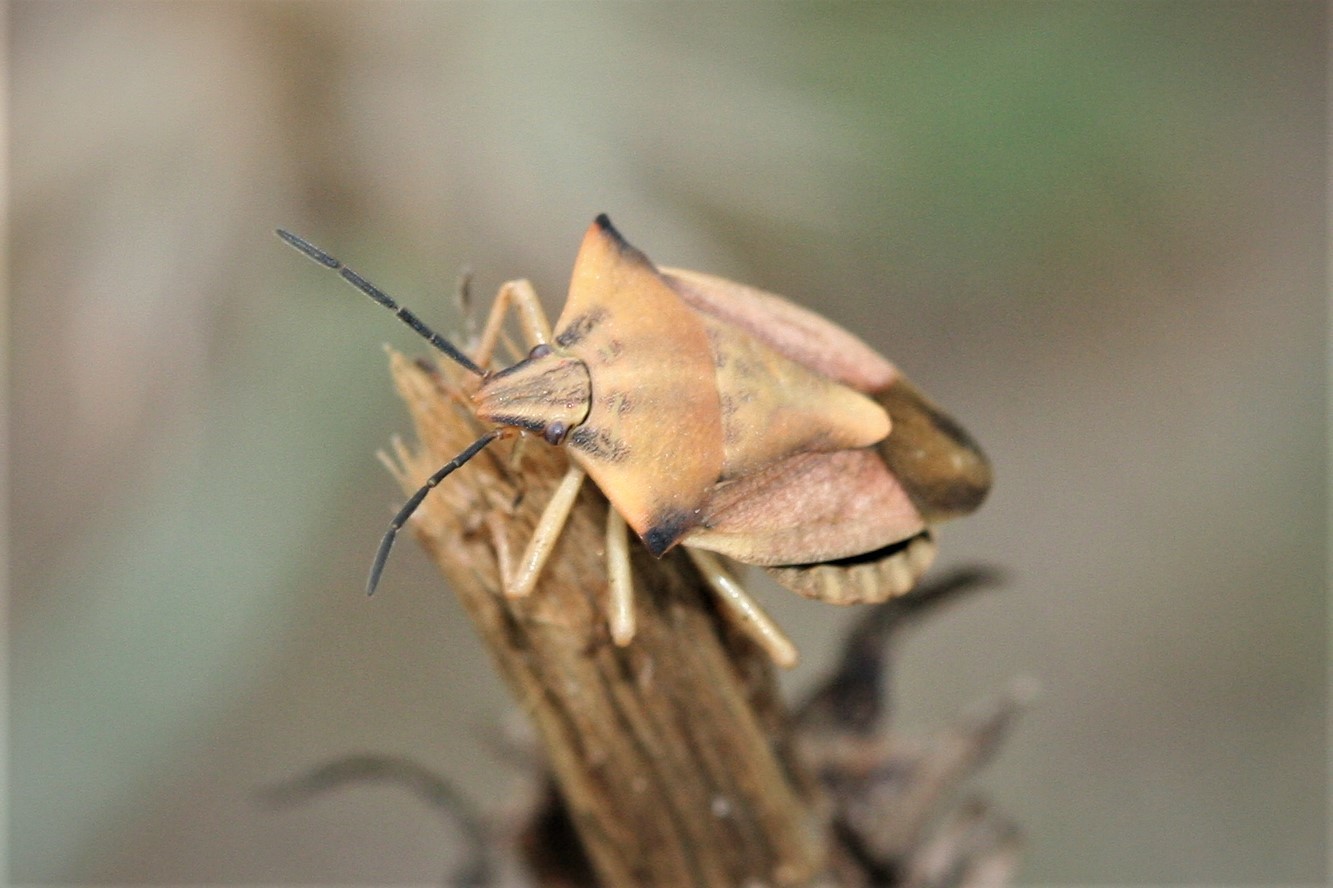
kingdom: Animalia
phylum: Arthropoda
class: Insecta
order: Hemiptera
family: Pentatomidae
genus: Carpocoris
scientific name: Carpocoris fuscispinus
